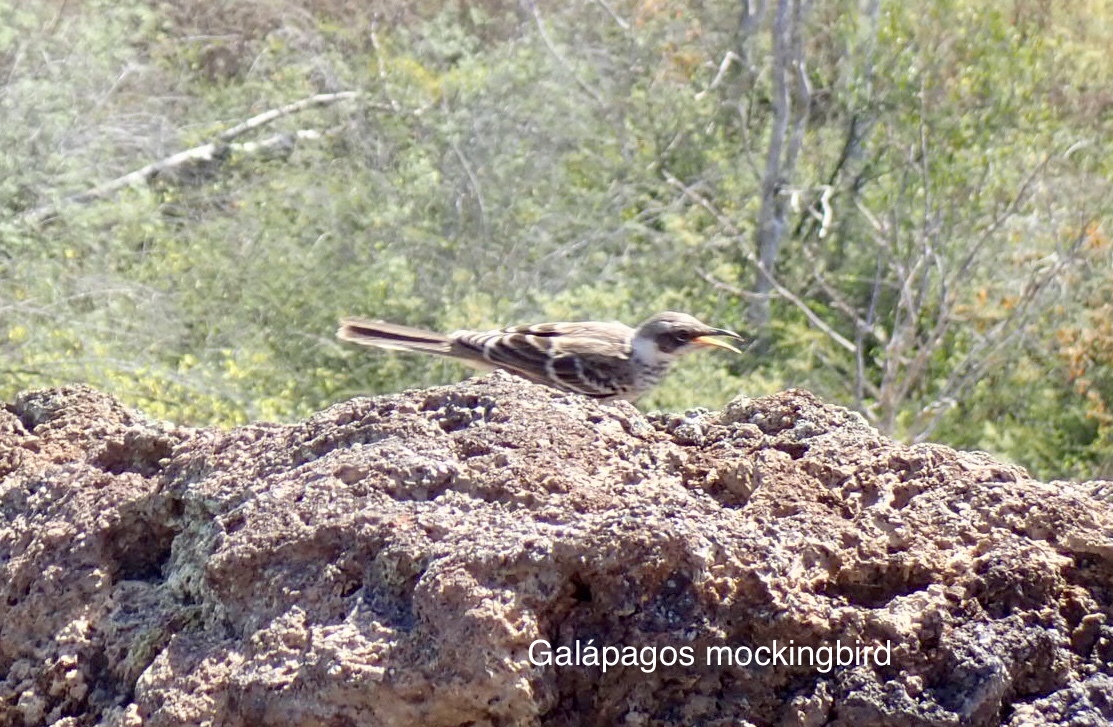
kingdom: Animalia
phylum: Chordata
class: Aves
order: Passeriformes
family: Mimidae
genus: Mimus
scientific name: Mimus parvulus
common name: Galapagos mockingbird
